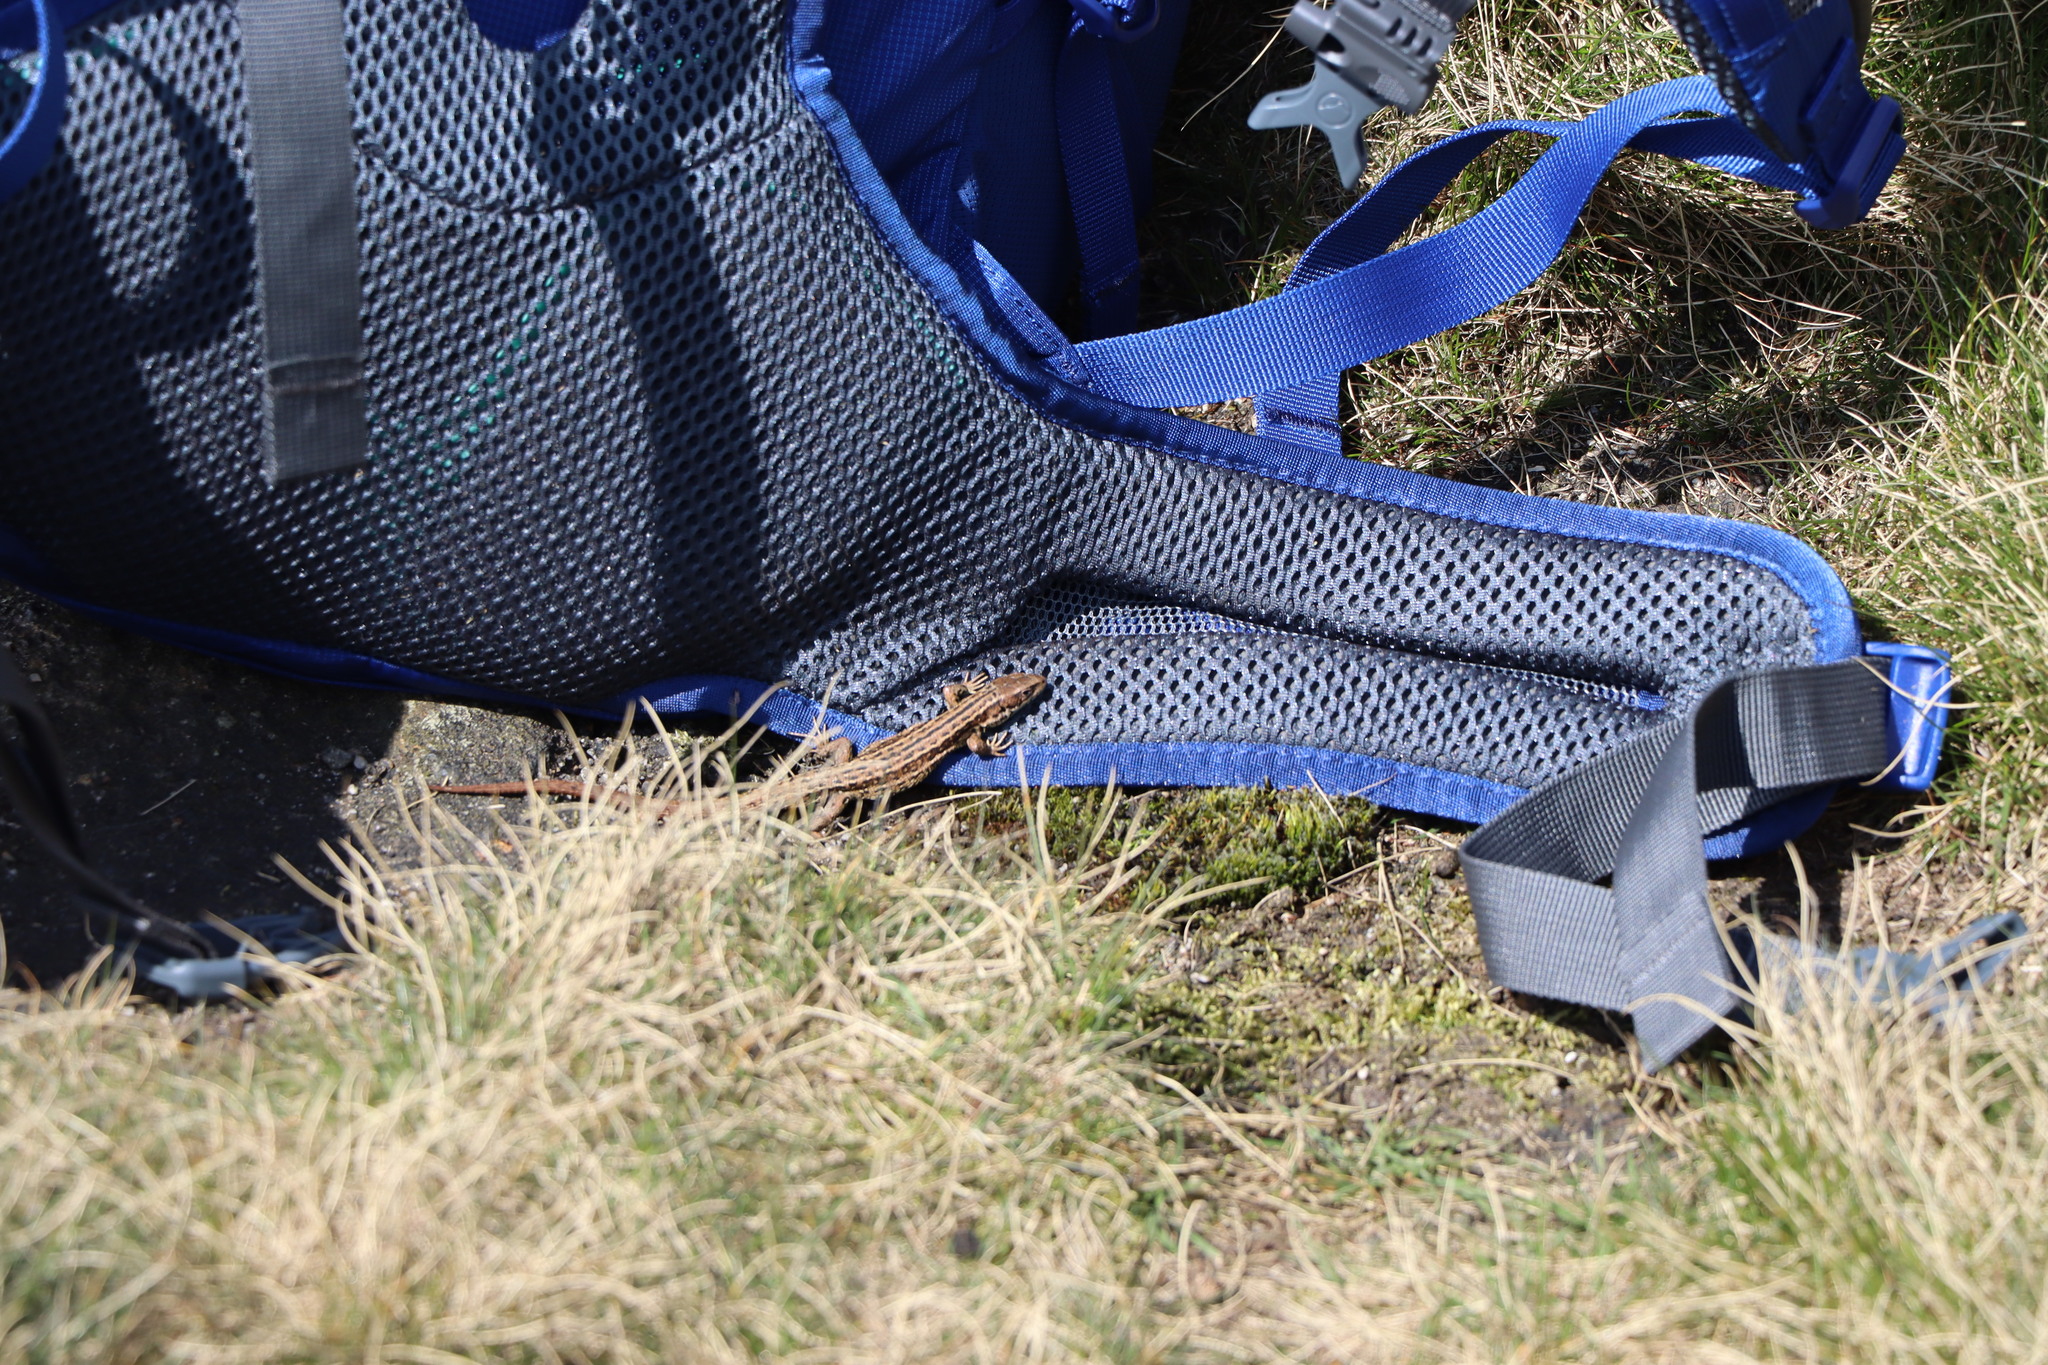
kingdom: Animalia
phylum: Chordata
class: Squamata
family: Lacertidae
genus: Zootoca
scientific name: Zootoca vivipara
